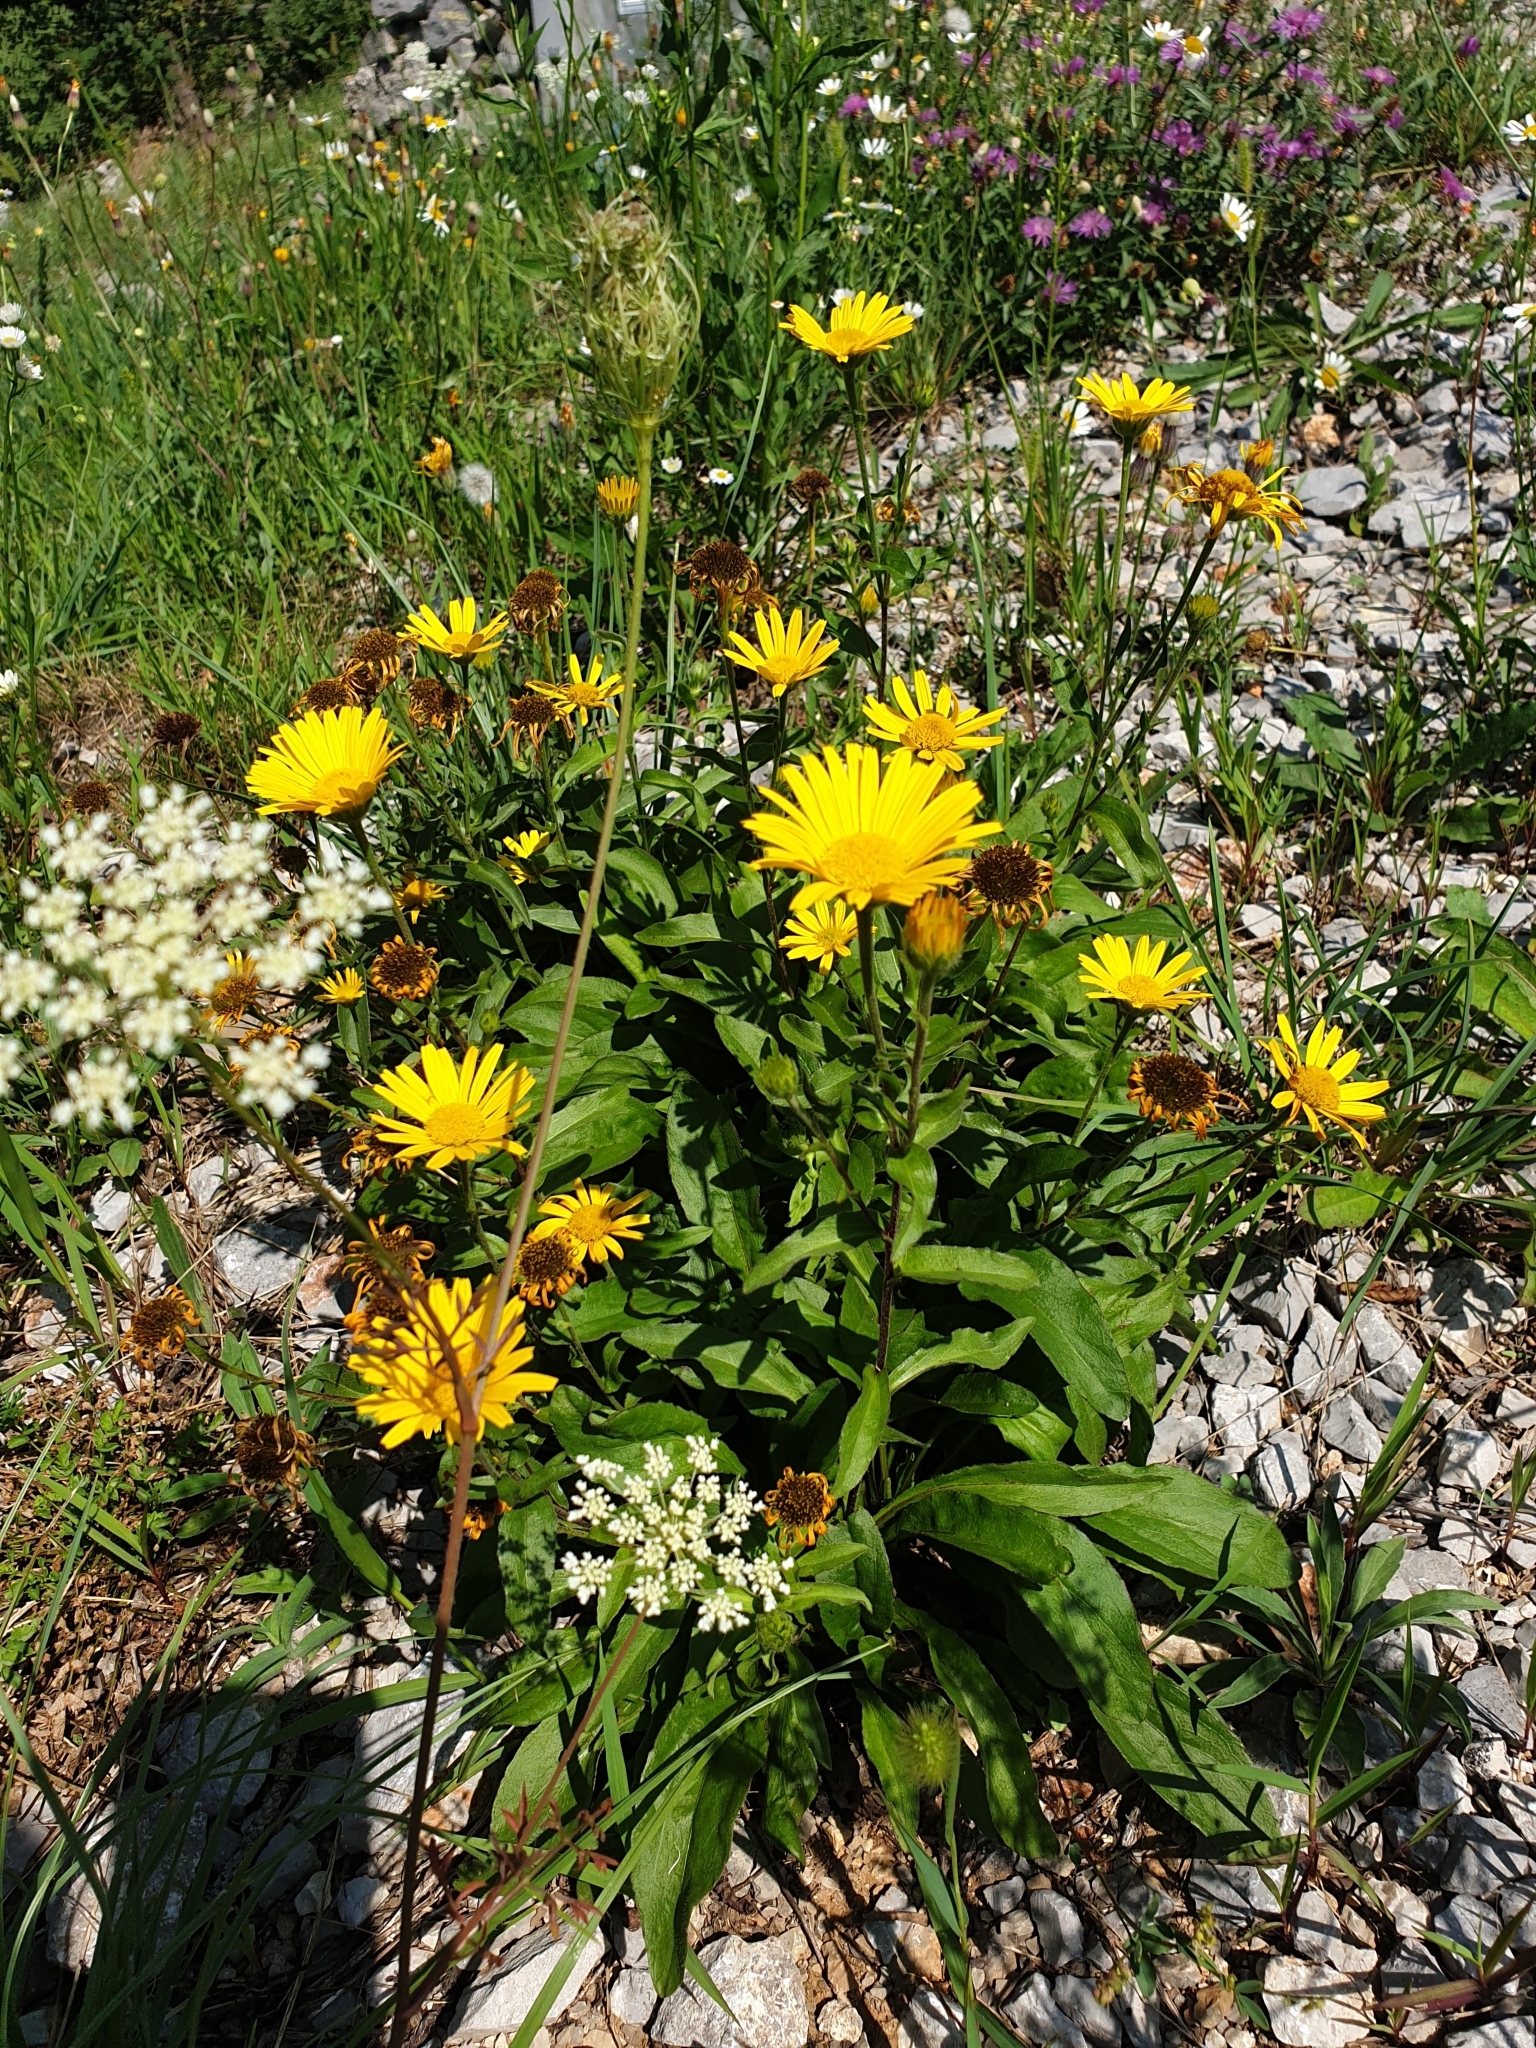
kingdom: Plantae
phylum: Tracheophyta
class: Magnoliopsida
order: Asterales
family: Asteraceae
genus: Buphthalmum
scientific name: Buphthalmum salicifolium
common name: Willow-leaved yellow-oxeye
